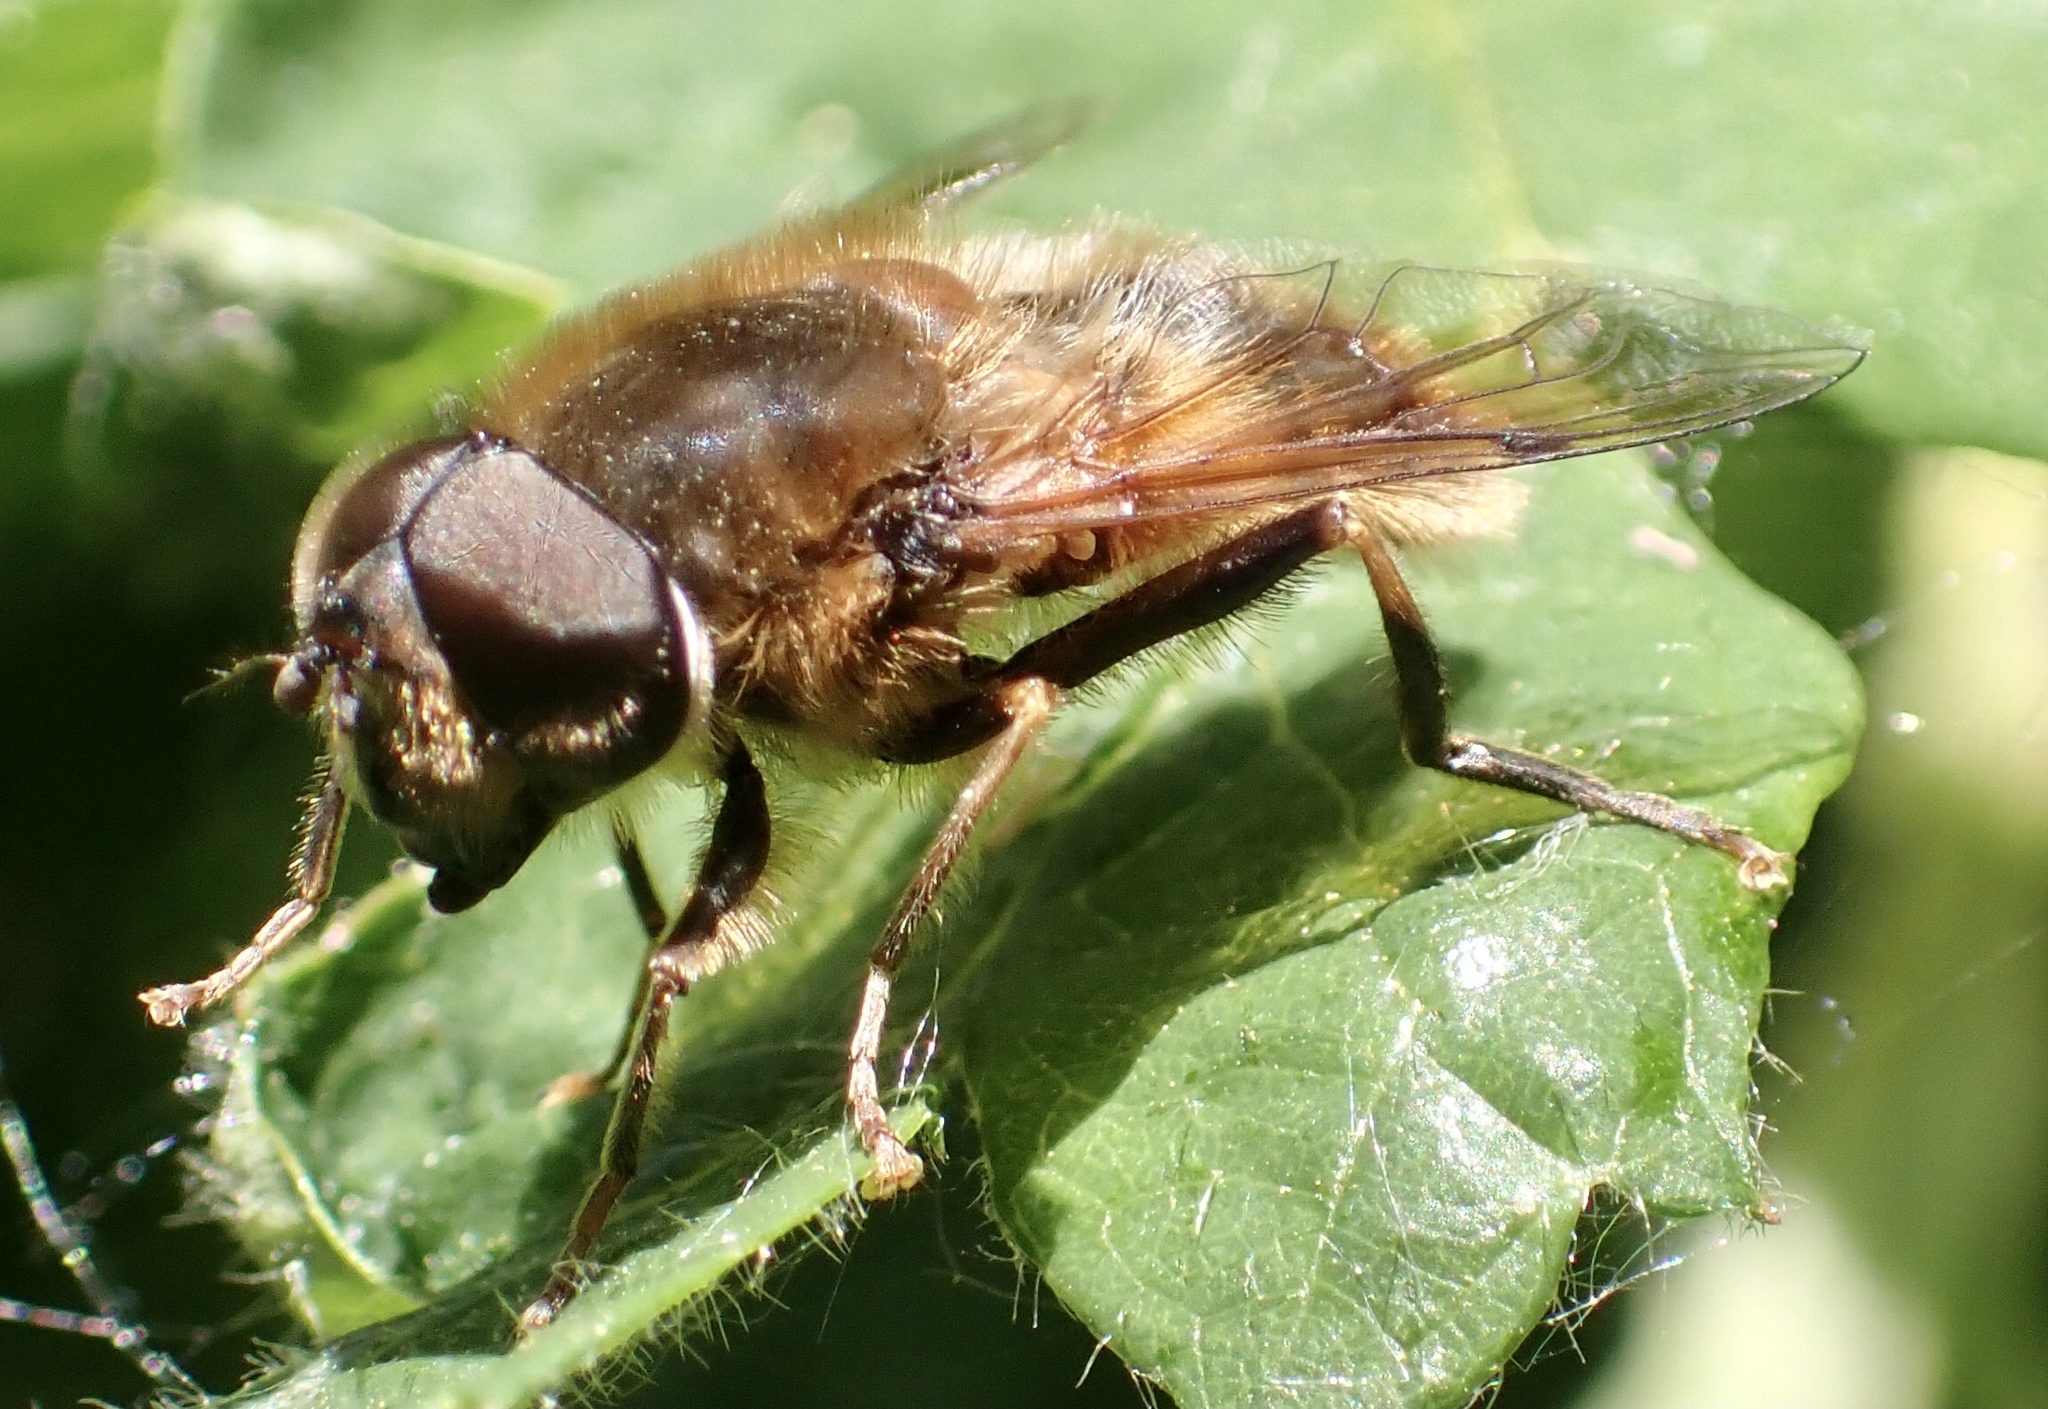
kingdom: Animalia
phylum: Arthropoda
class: Insecta
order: Diptera
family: Syrphidae
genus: Eristalis
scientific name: Eristalis pertinax
